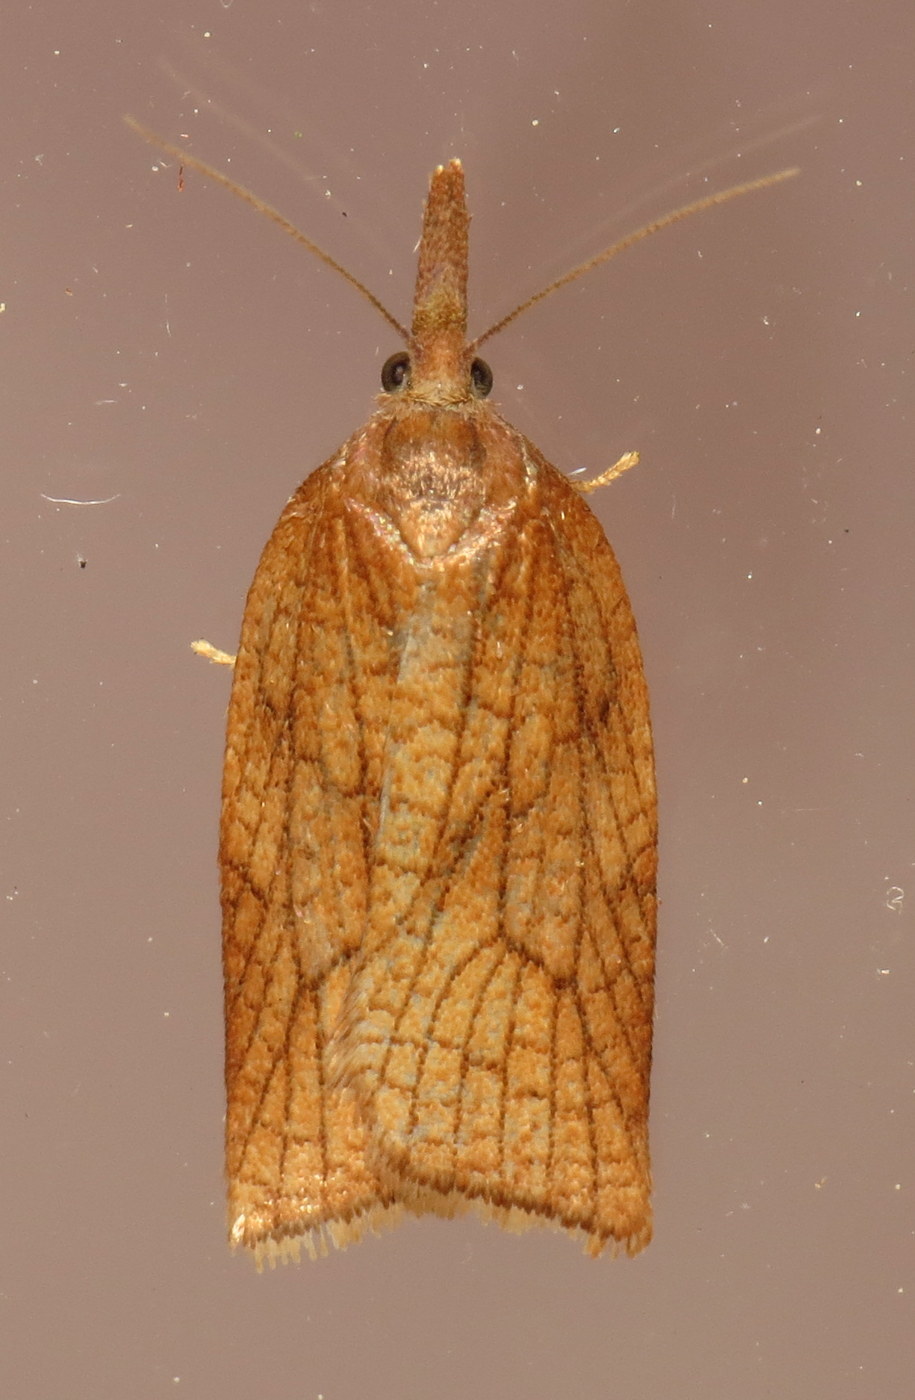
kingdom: Animalia
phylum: Arthropoda
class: Insecta
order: Lepidoptera
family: Tortricidae
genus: Sparganothis
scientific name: Sparganothis boweri
